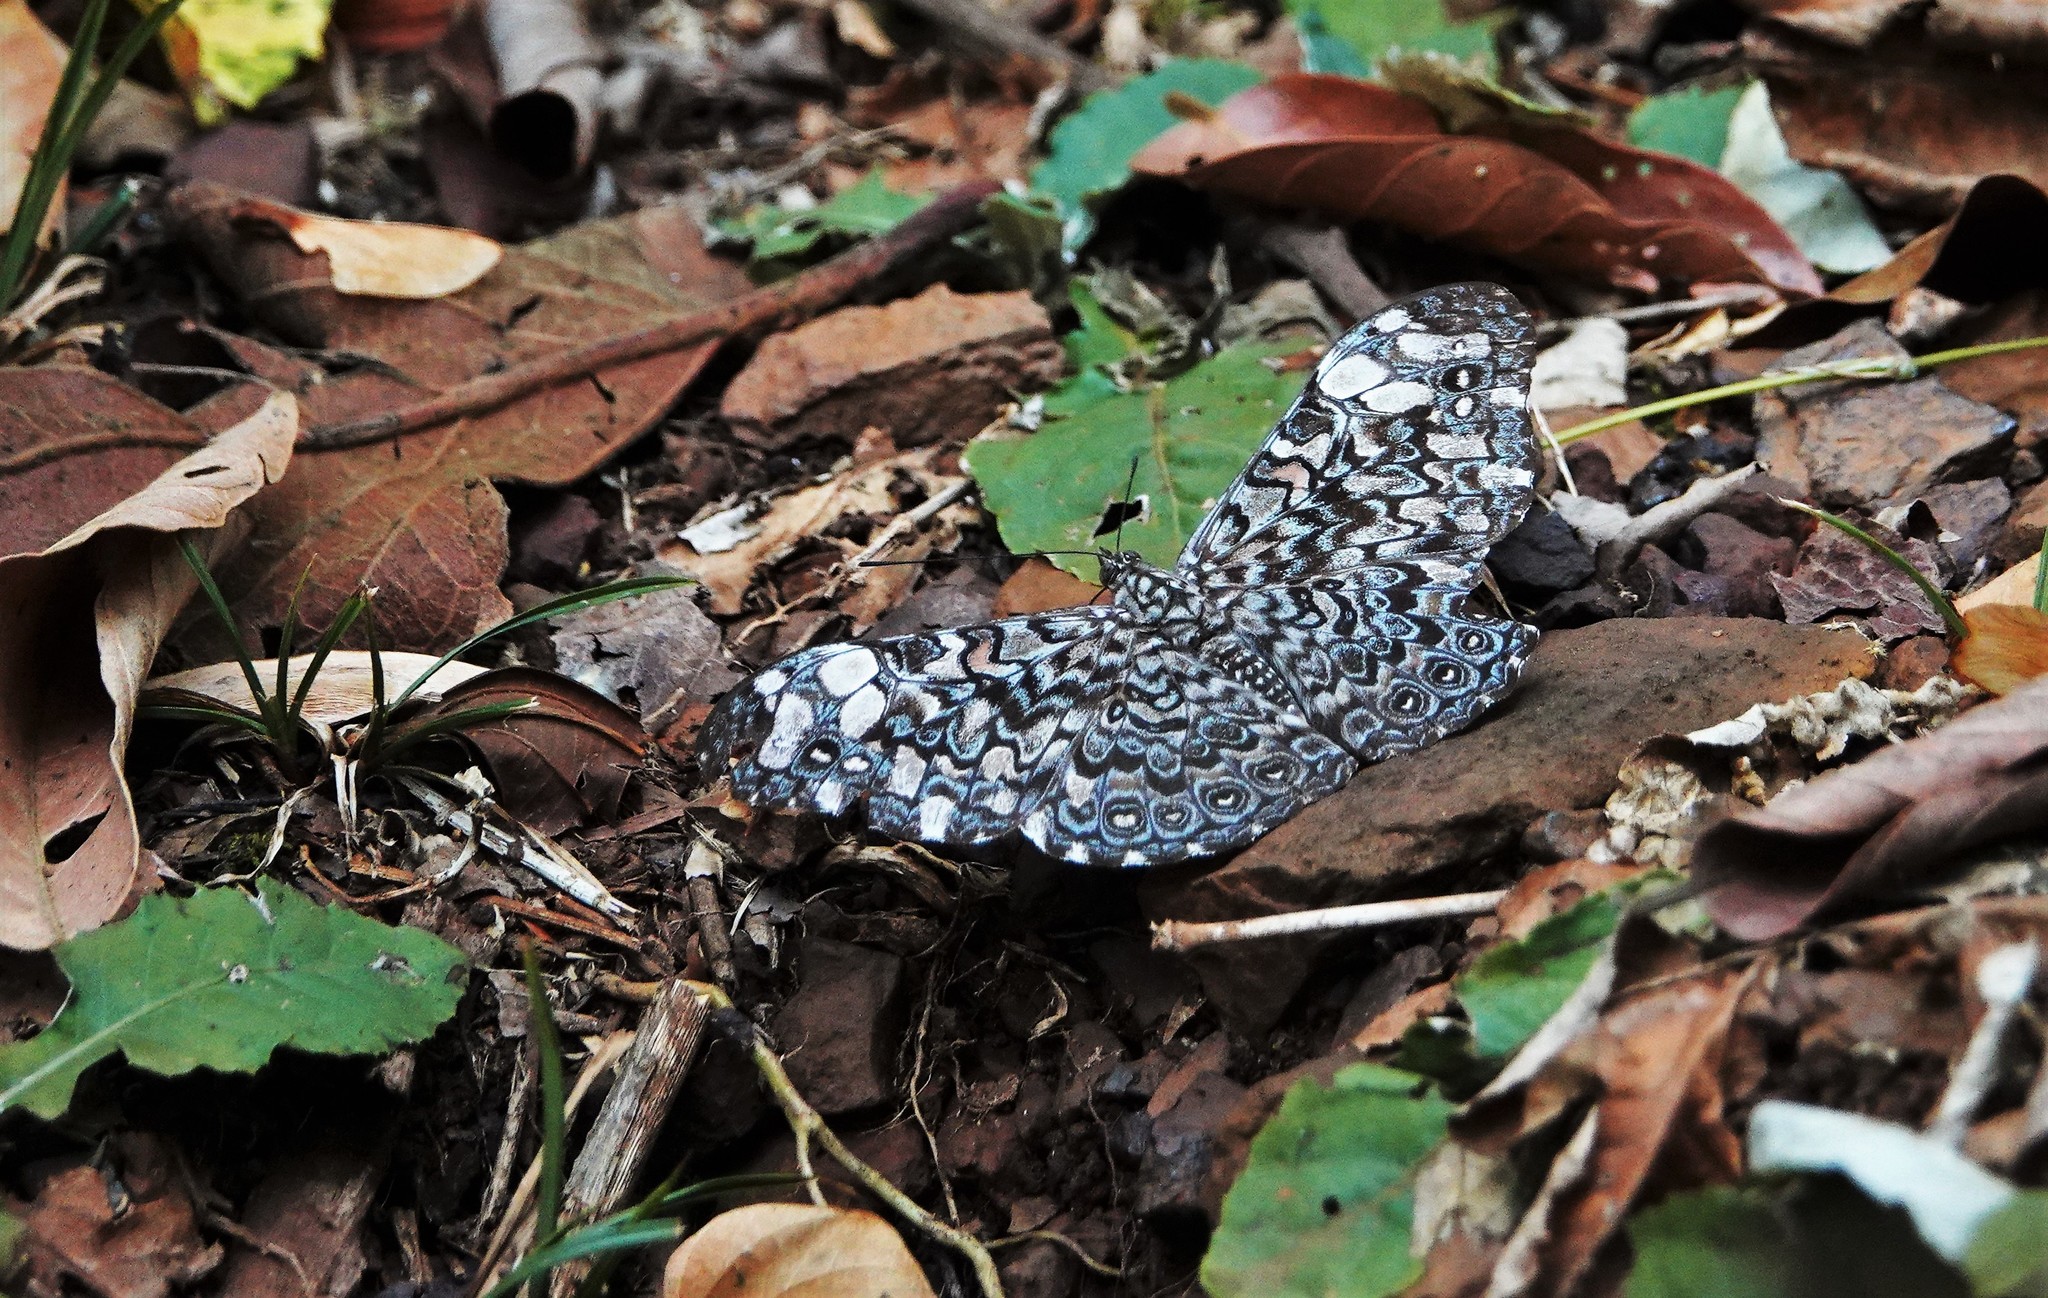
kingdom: Animalia
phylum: Arthropoda
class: Insecta
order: Lepidoptera
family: Nymphalidae
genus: Hamadryas
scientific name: Hamadryas iphthime
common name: Brownish cracker
